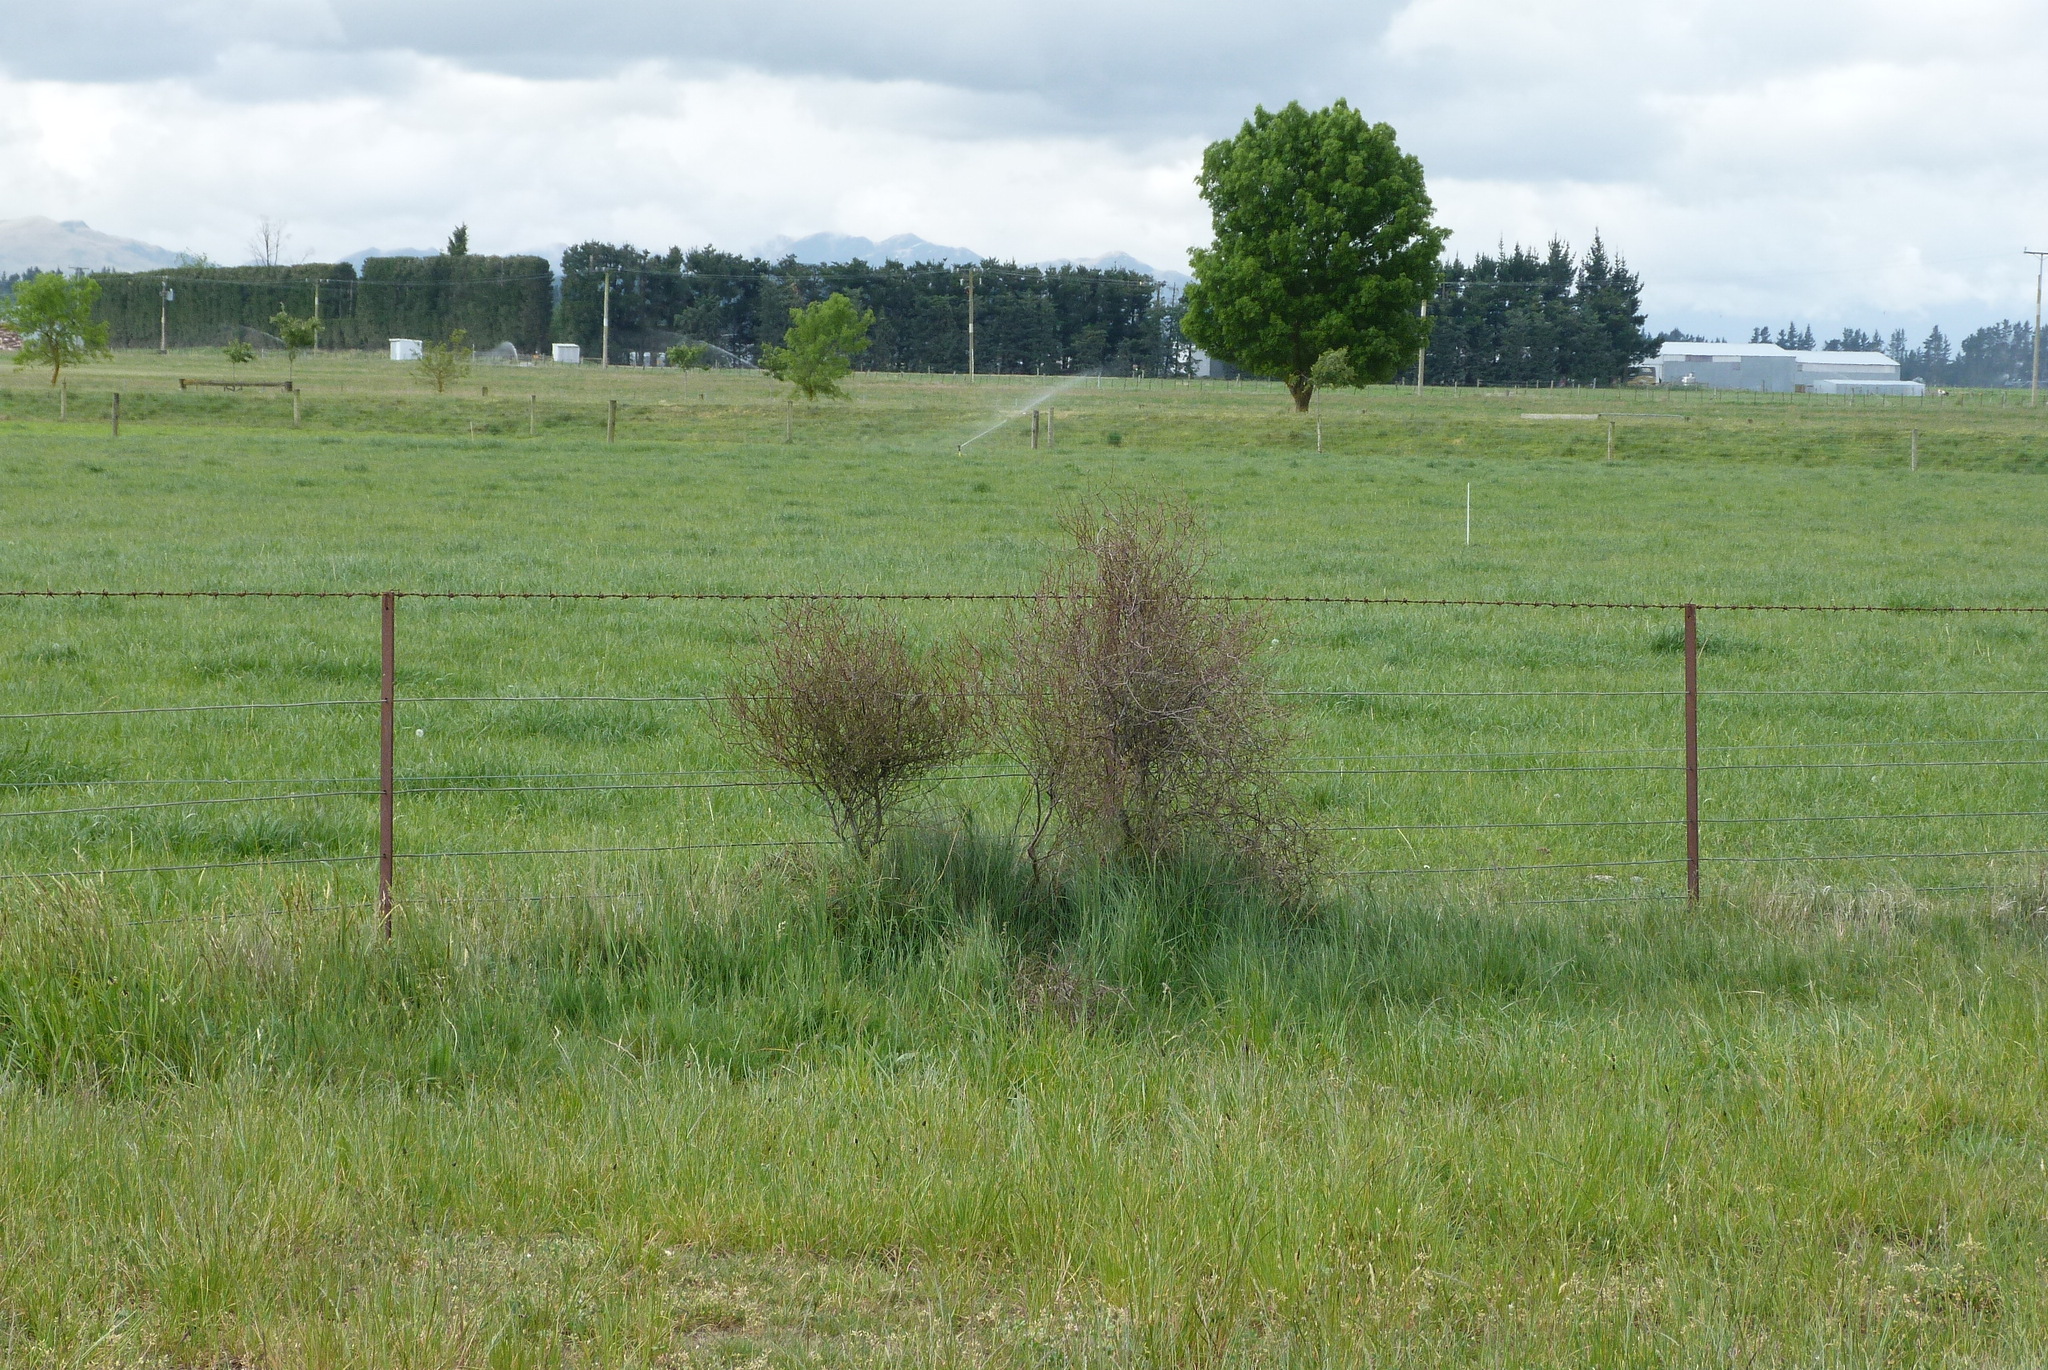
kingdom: Plantae
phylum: Tracheophyta
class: Magnoliopsida
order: Gentianales
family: Rubiaceae
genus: Coprosma
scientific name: Coprosma intertexta
